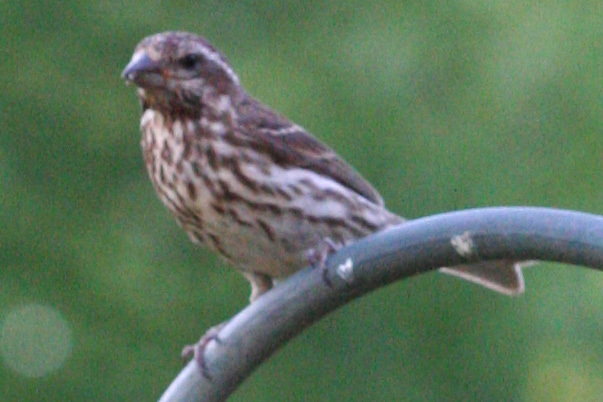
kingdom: Animalia
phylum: Chordata
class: Aves
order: Passeriformes
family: Fringillidae
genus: Haemorhous
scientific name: Haemorhous purpureus
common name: Purple finch
